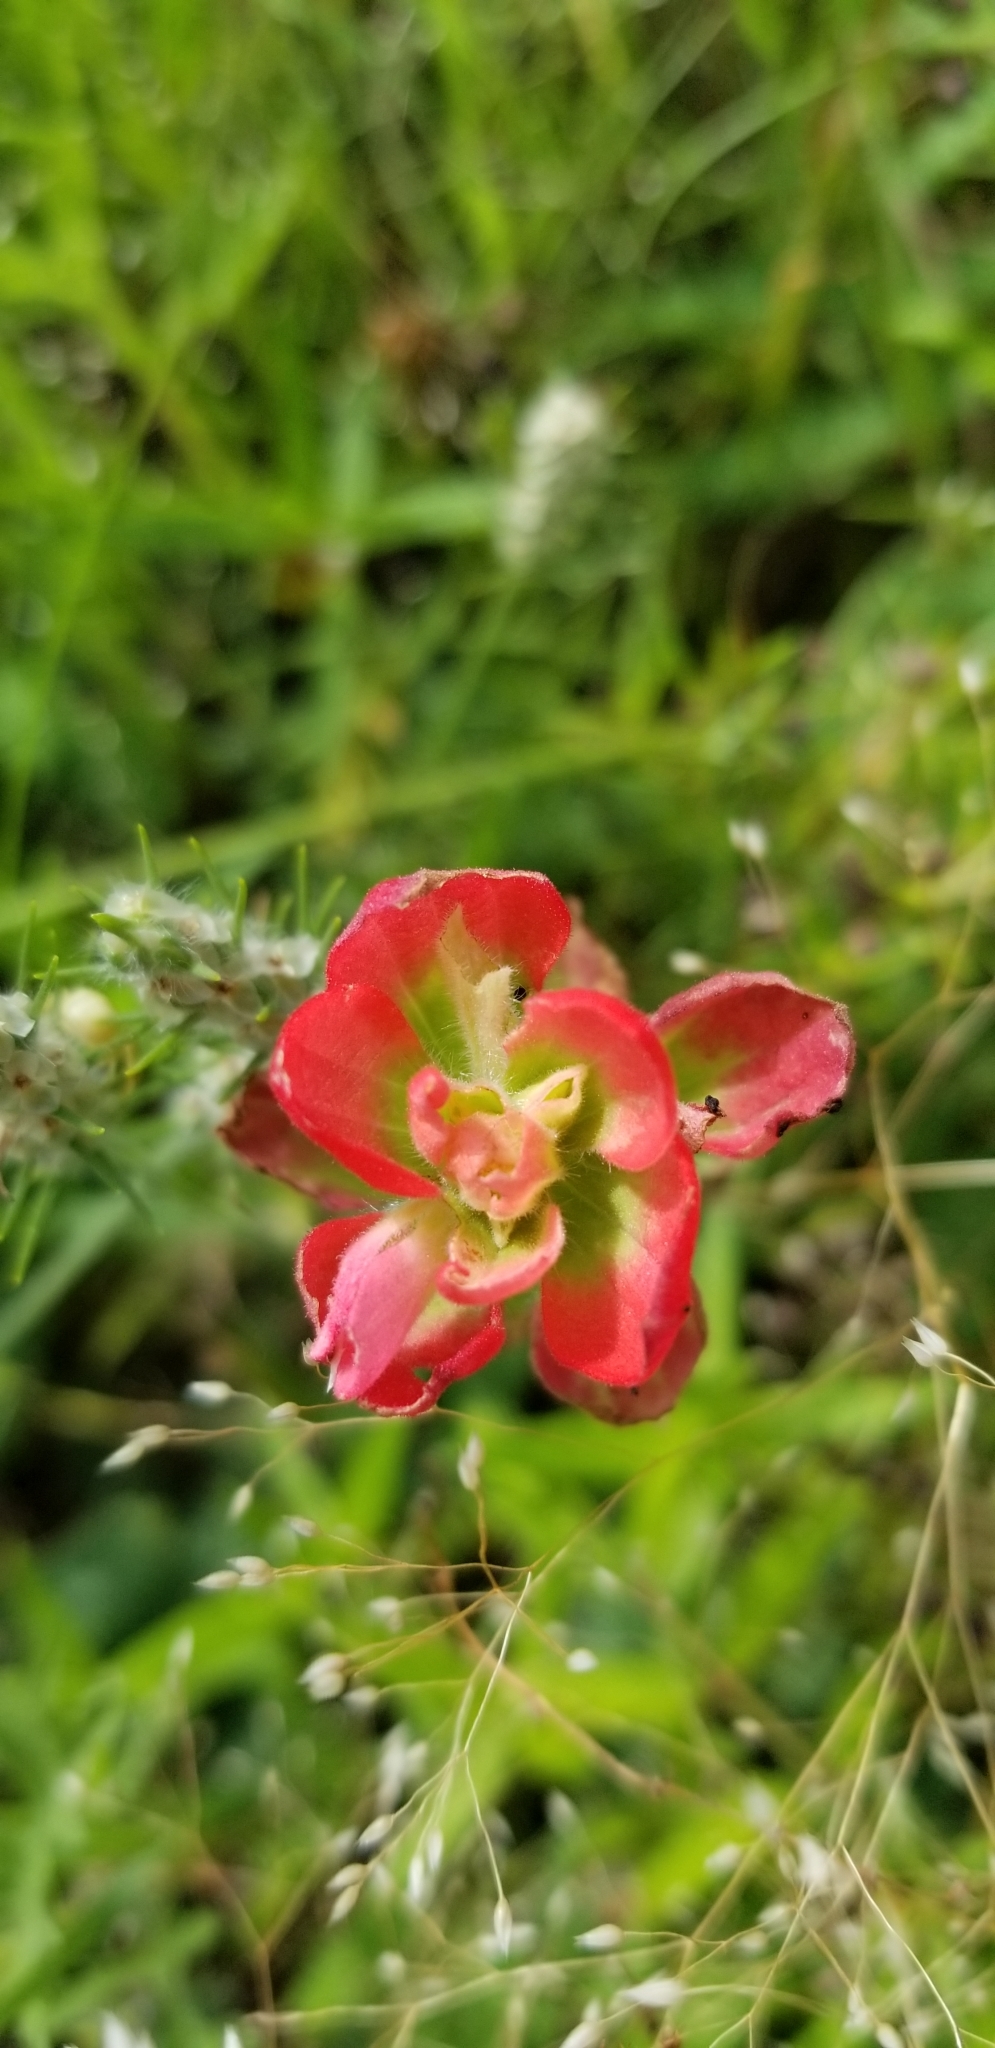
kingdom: Plantae
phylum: Tracheophyta
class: Magnoliopsida
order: Lamiales
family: Orobanchaceae
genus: Castilleja
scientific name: Castilleja indivisa
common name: Texas paintbrush
